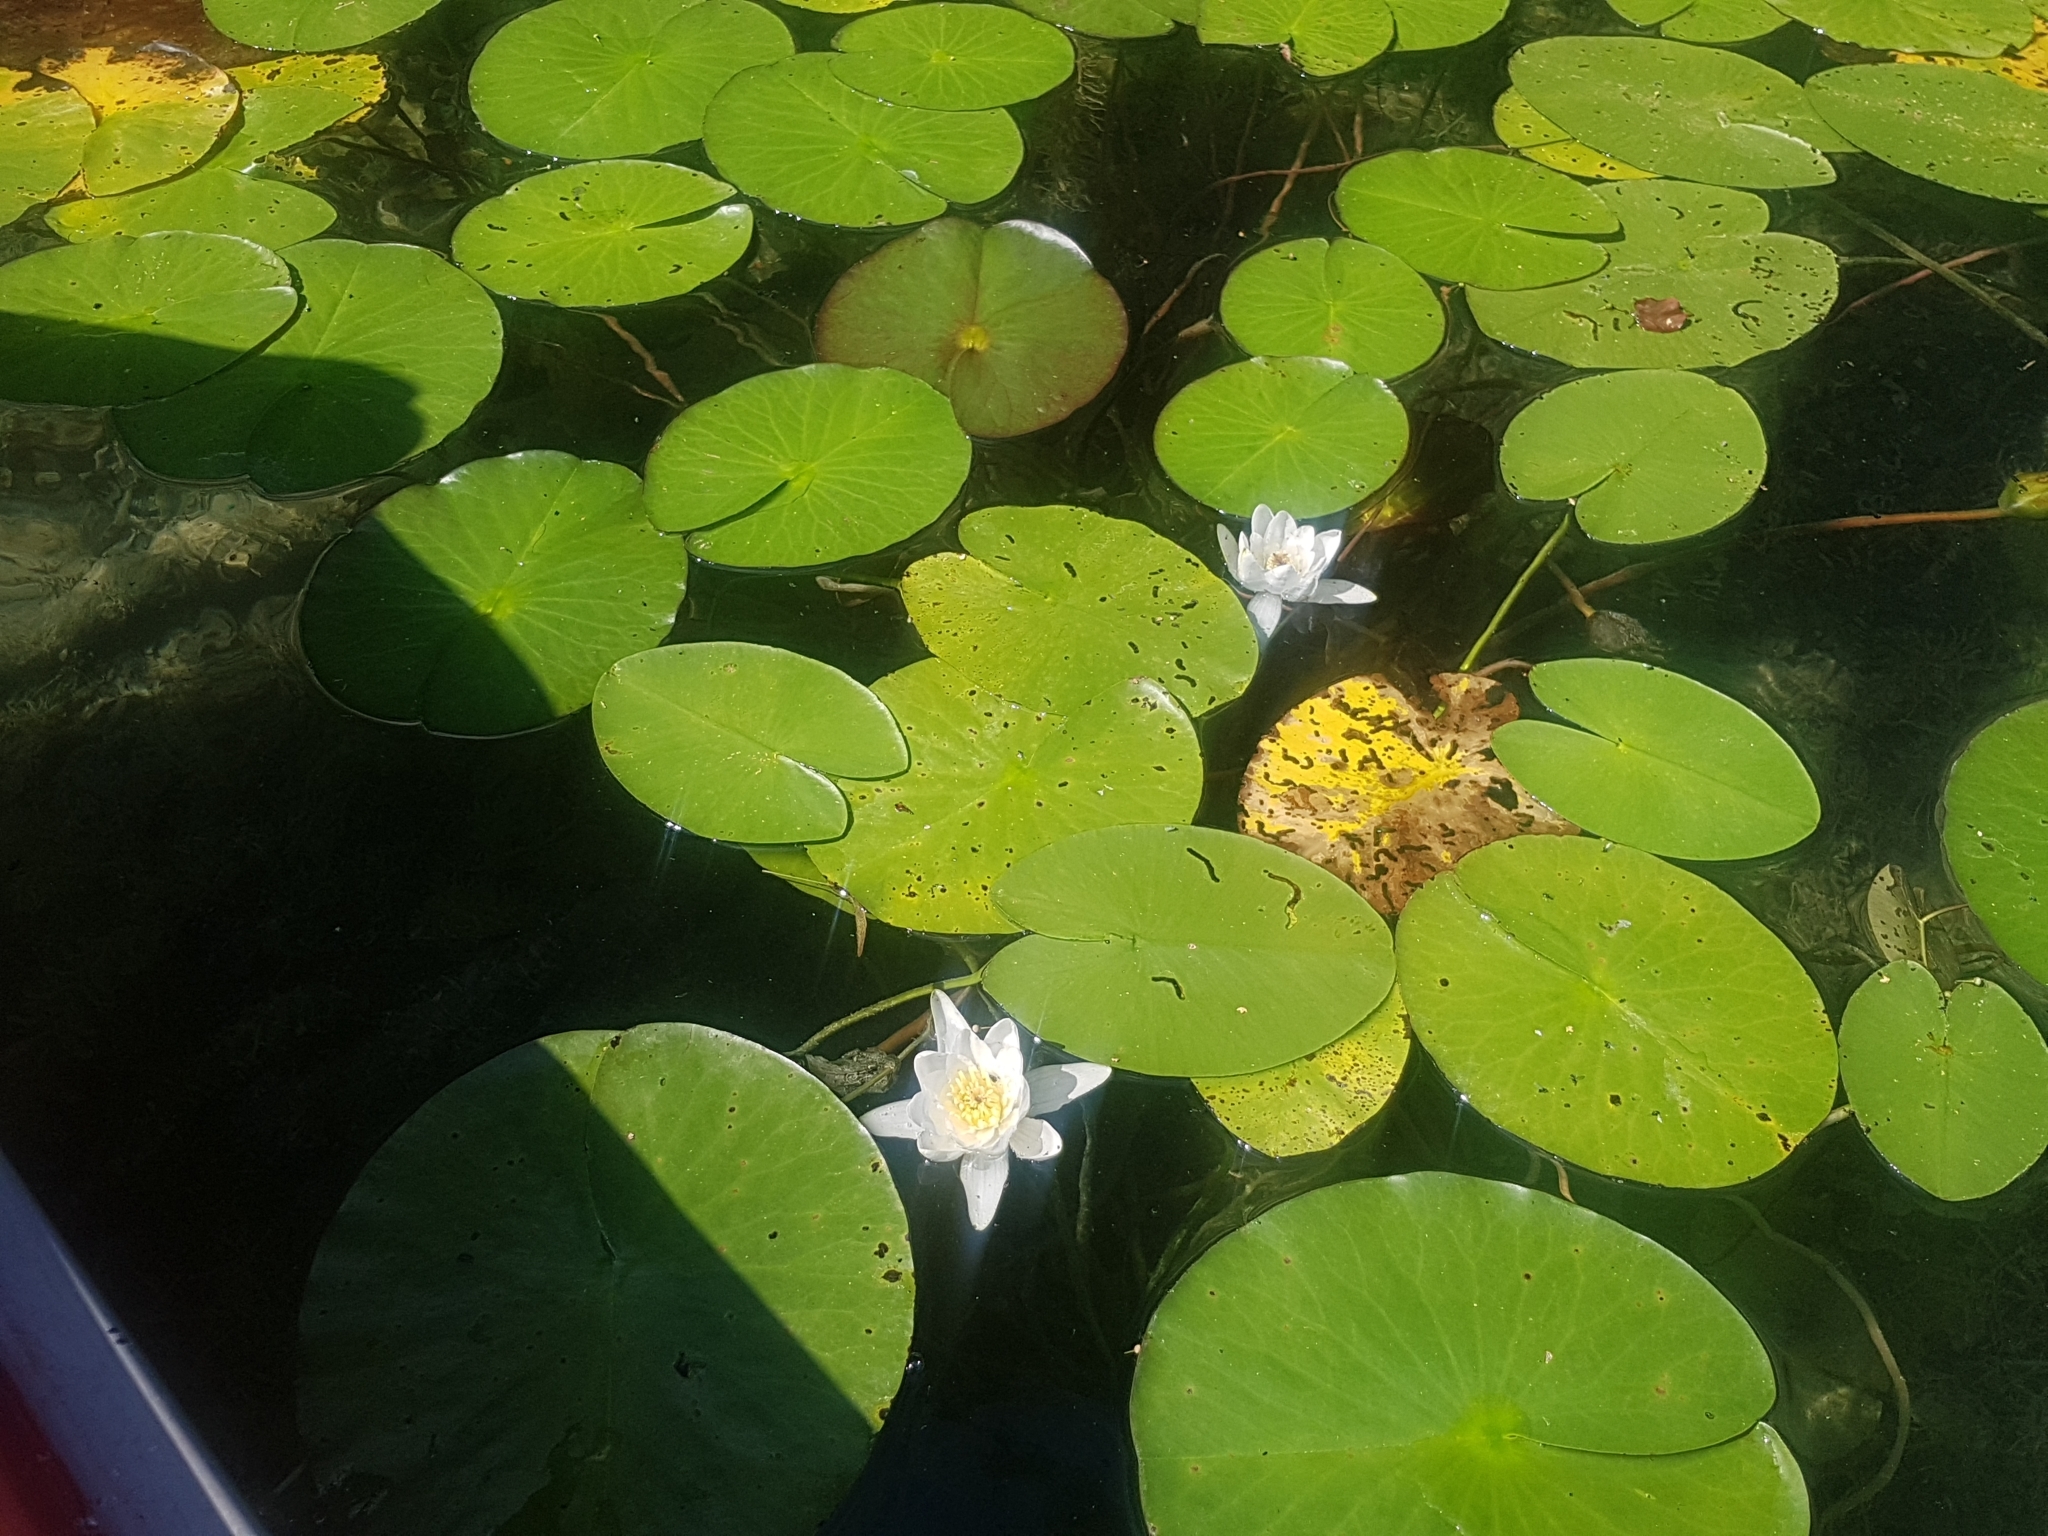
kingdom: Plantae
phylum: Tracheophyta
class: Magnoliopsida
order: Nymphaeales
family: Nymphaeaceae
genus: Nymphaea
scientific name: Nymphaea alba
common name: White water-lily
